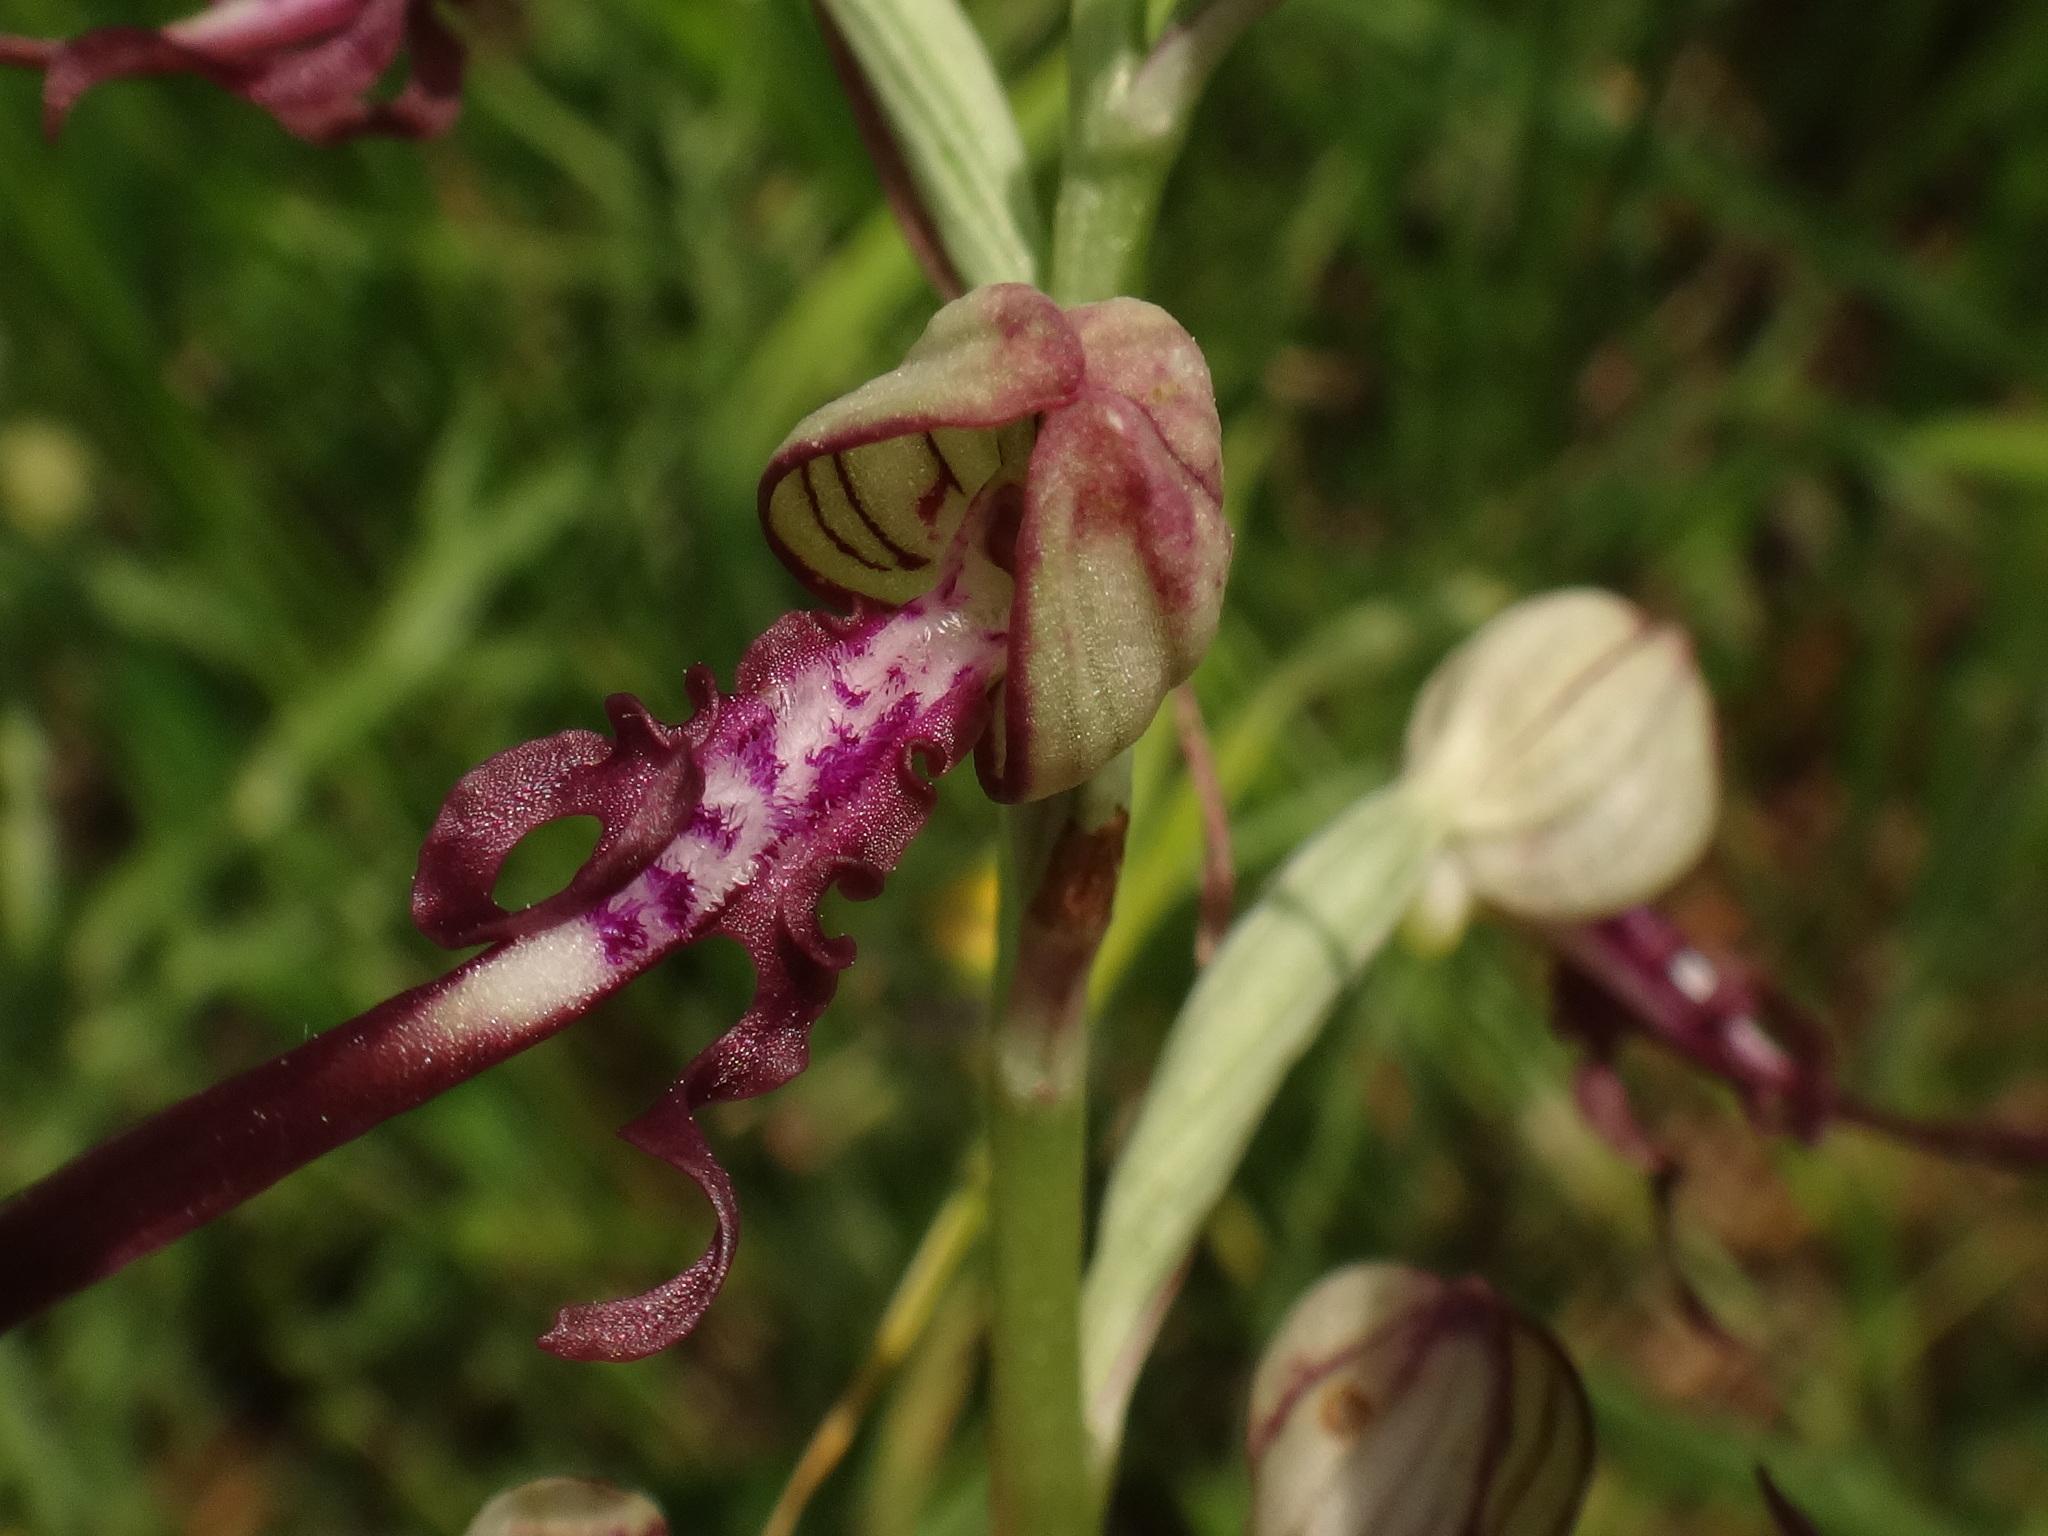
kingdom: Plantae
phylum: Tracheophyta
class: Liliopsida
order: Asparagales
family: Orchidaceae
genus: Himantoglossum
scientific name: Himantoglossum adriaticum
